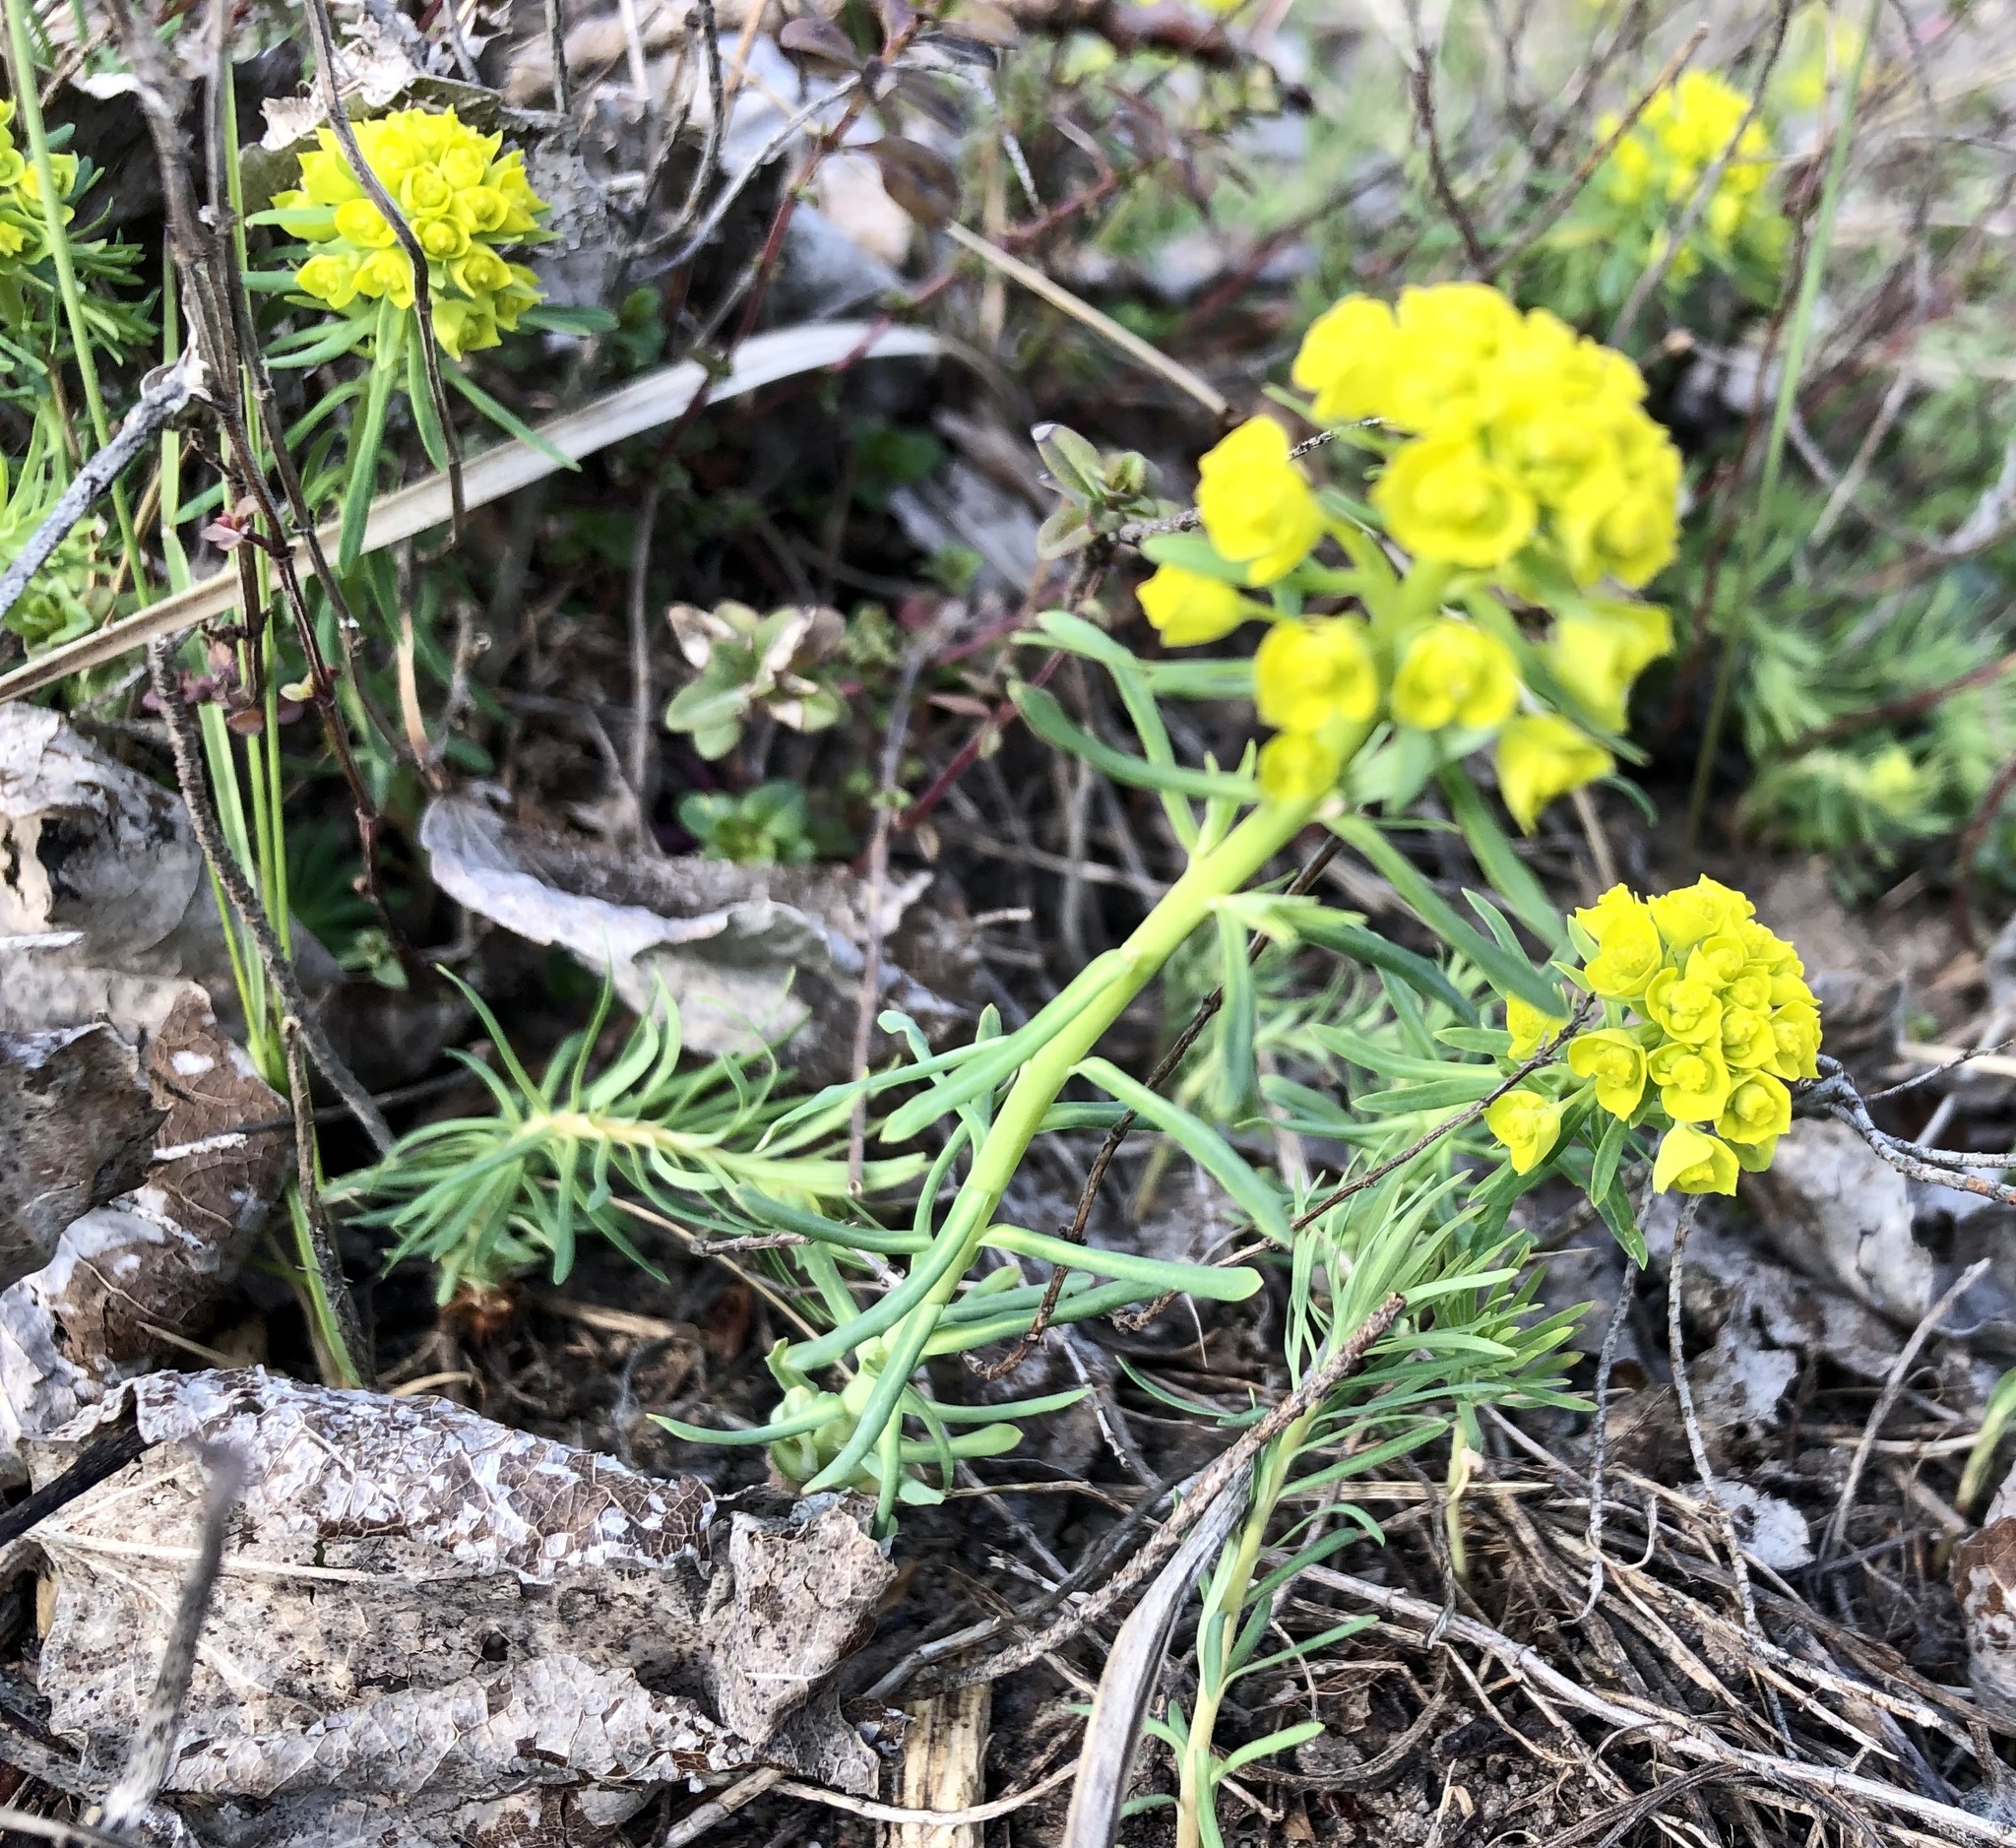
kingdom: Plantae
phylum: Tracheophyta
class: Magnoliopsida
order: Malpighiales
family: Euphorbiaceae
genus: Euphorbia
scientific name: Euphorbia cyparissias
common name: Cypress spurge
